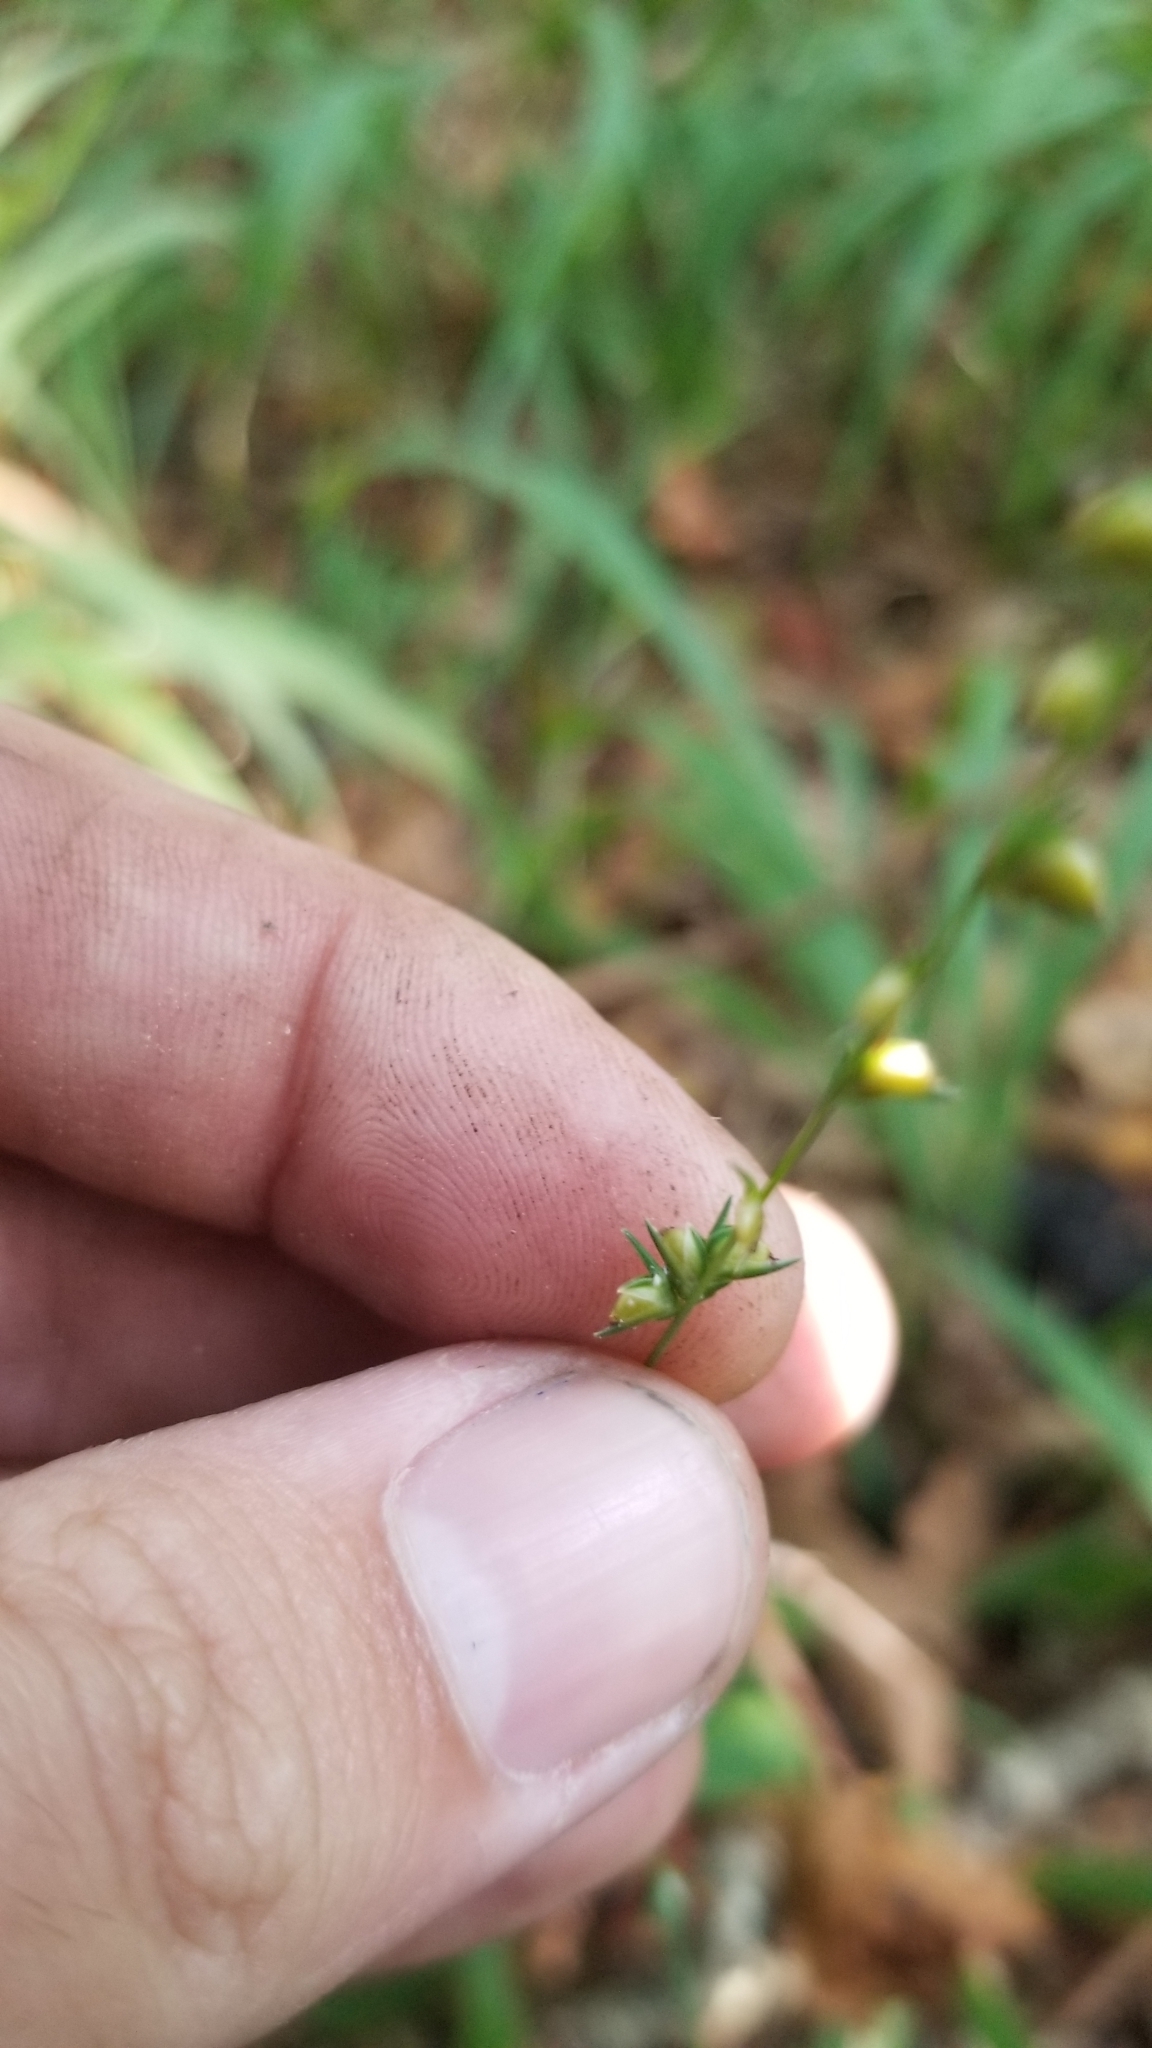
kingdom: Plantae
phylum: Tracheophyta
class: Liliopsida
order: Poales
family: Poaceae
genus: Chasmanthium
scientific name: Chasmanthium laxum
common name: Slender chasmanthium
